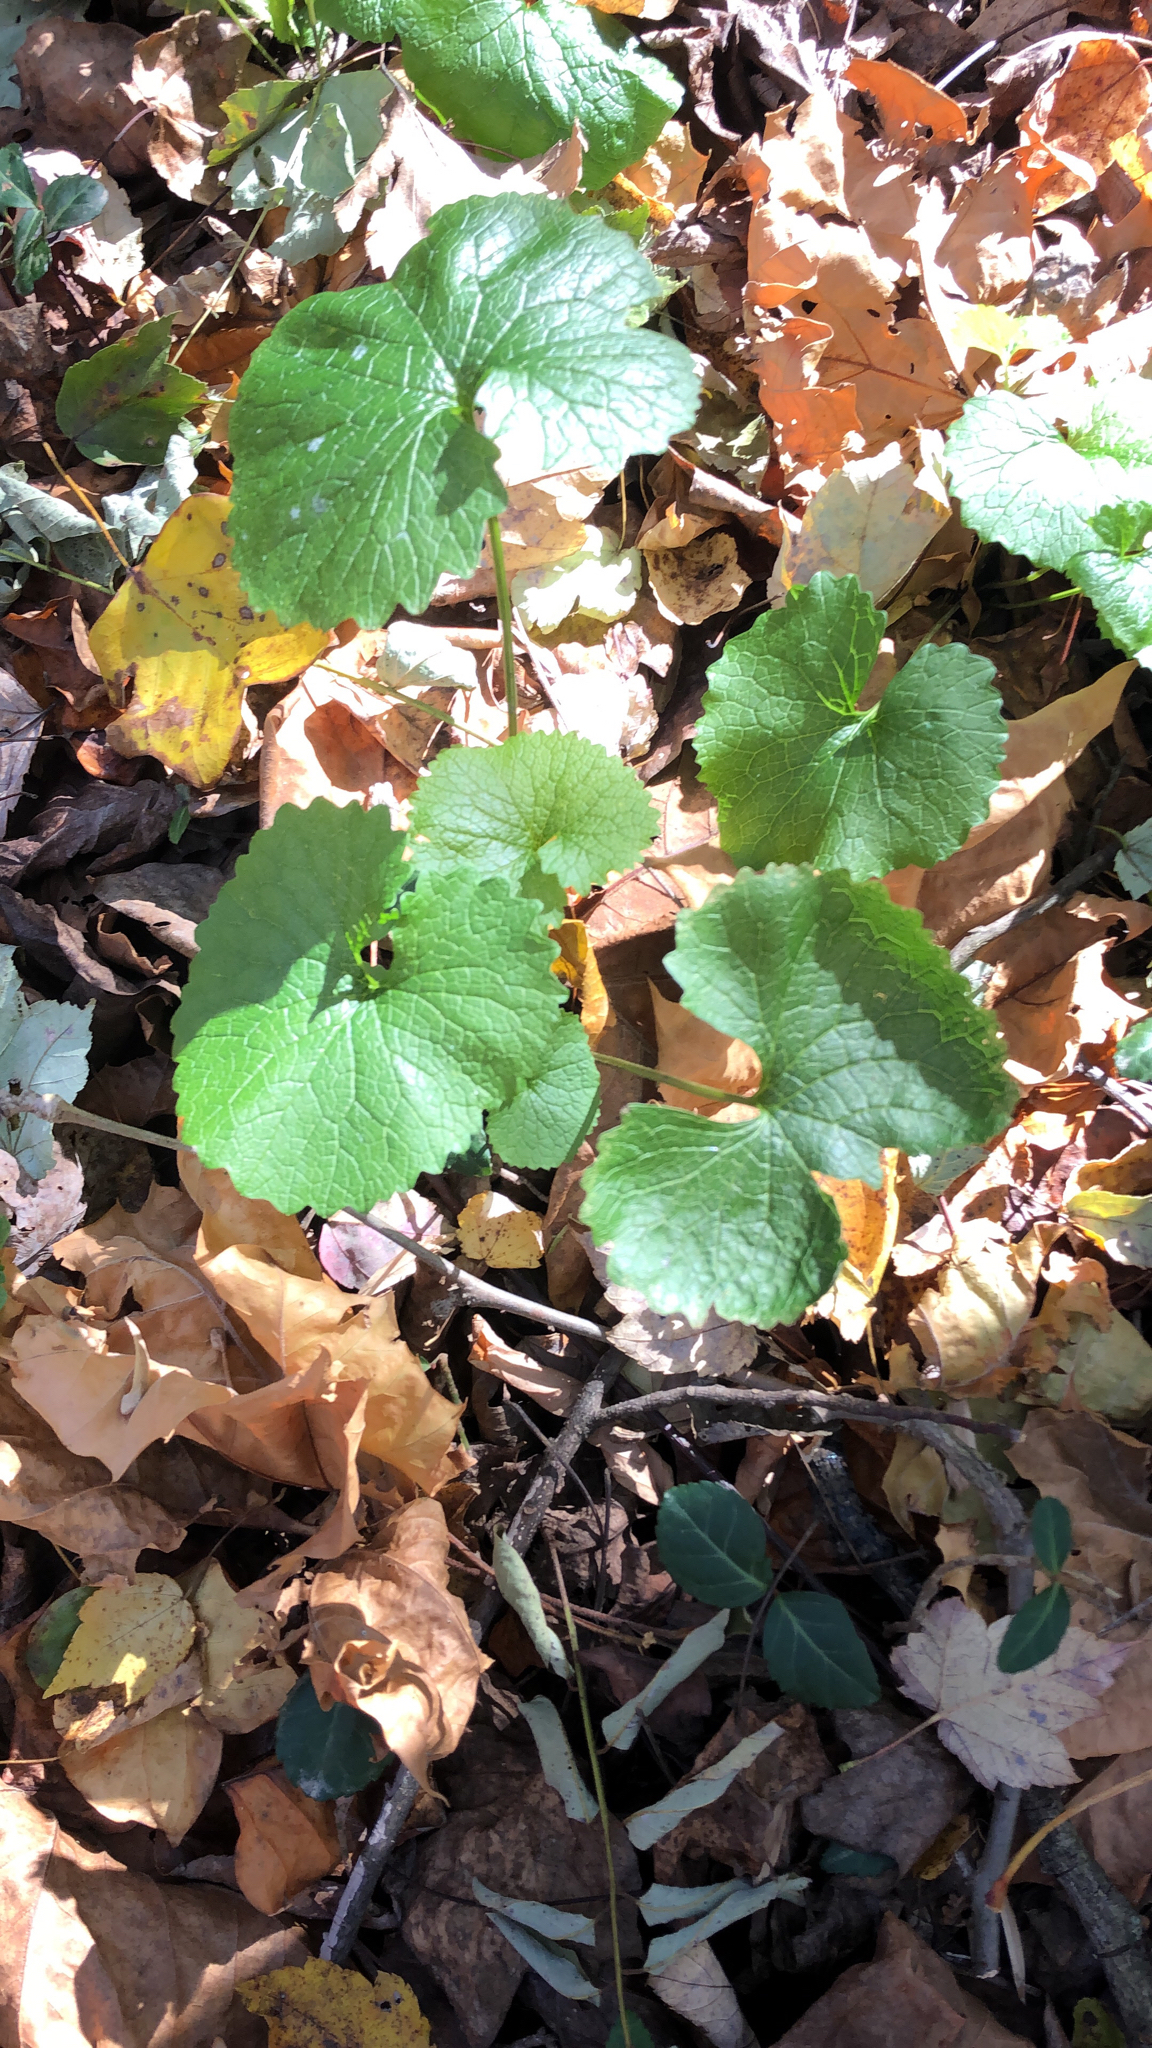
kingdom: Plantae
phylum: Tracheophyta
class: Magnoliopsida
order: Brassicales
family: Brassicaceae
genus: Alliaria
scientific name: Alliaria petiolata
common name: Garlic mustard
